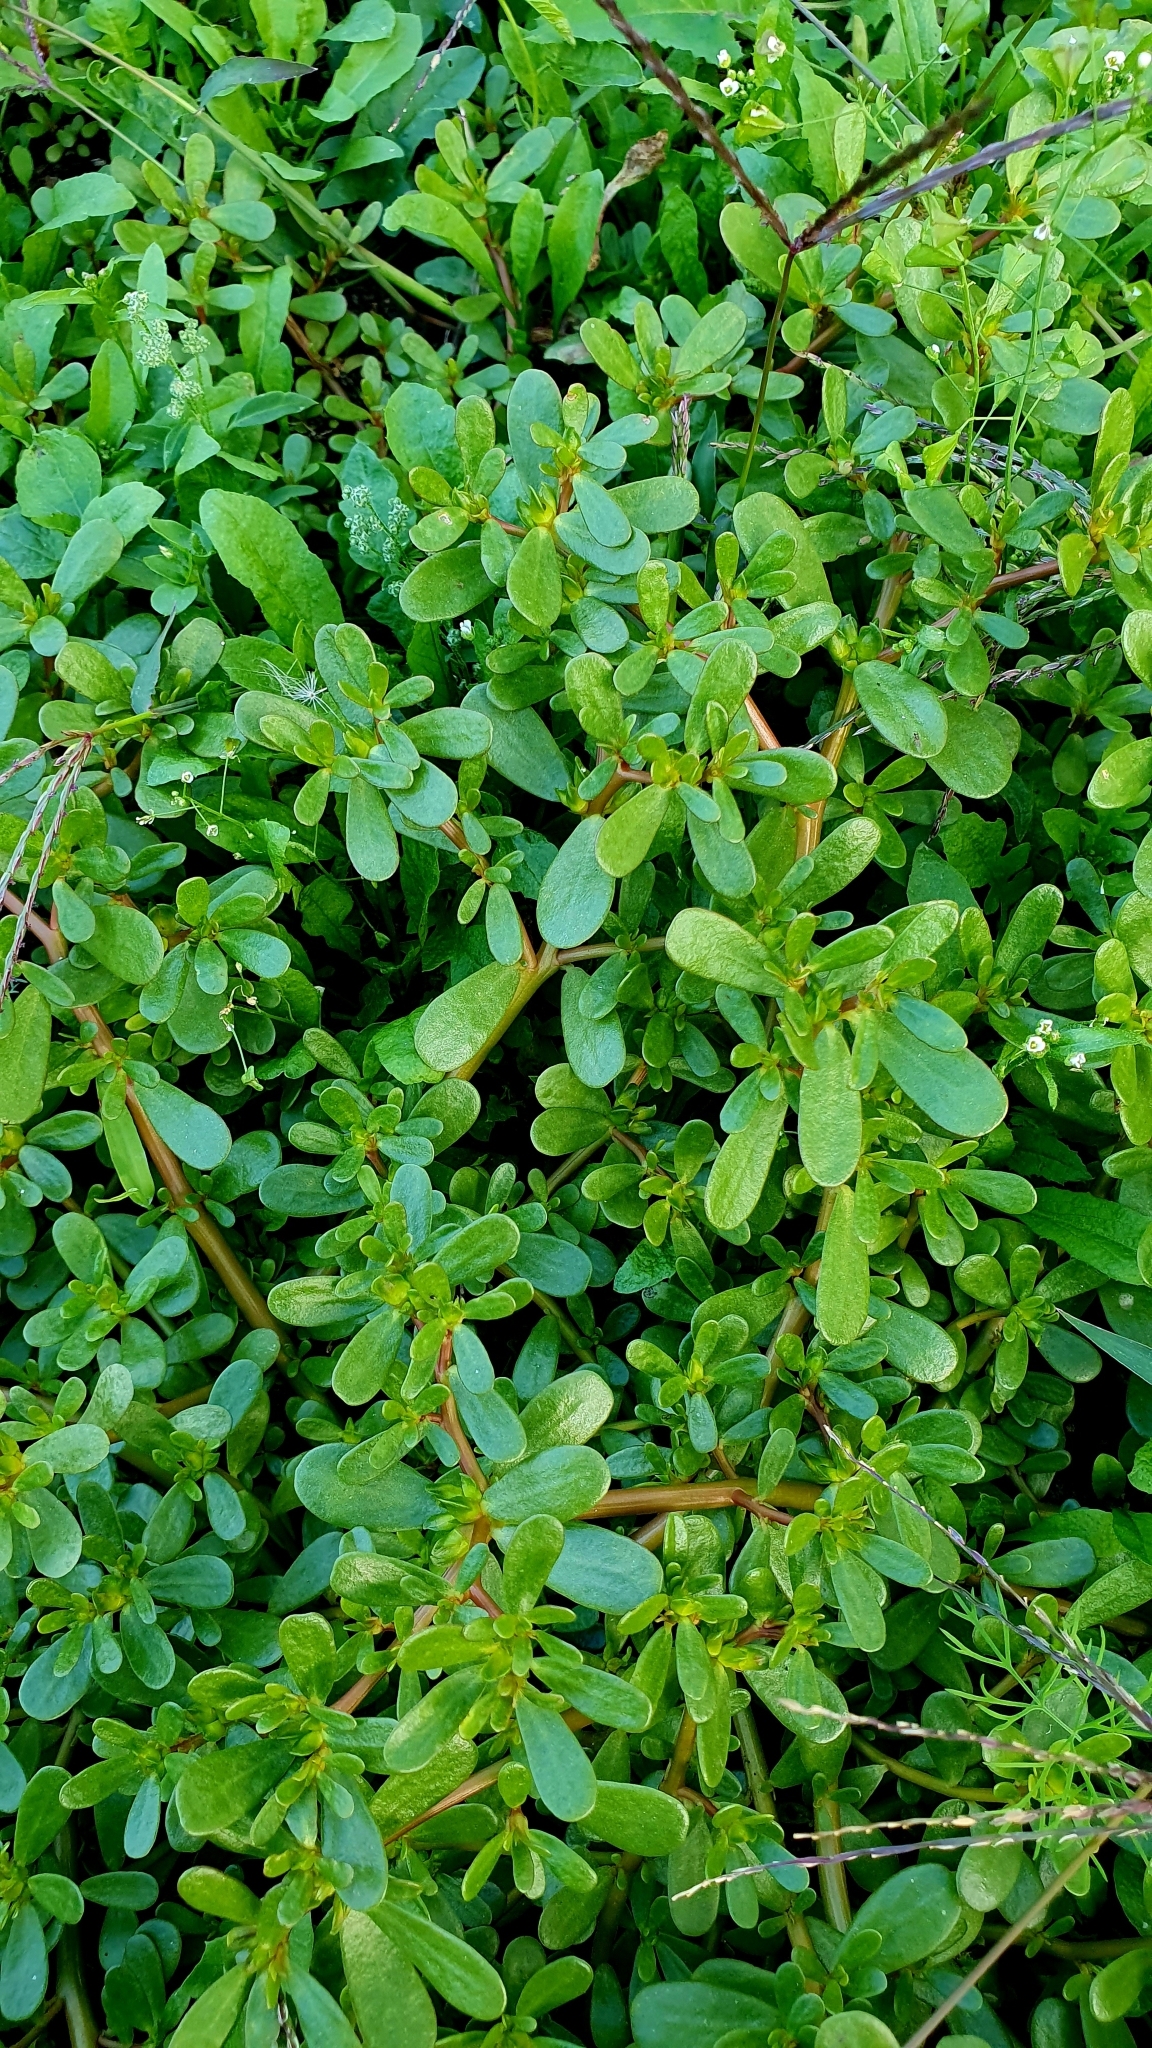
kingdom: Plantae
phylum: Tracheophyta
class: Magnoliopsida
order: Caryophyllales
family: Portulacaceae
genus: Portulaca
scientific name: Portulaca oleracea
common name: Common purslane
